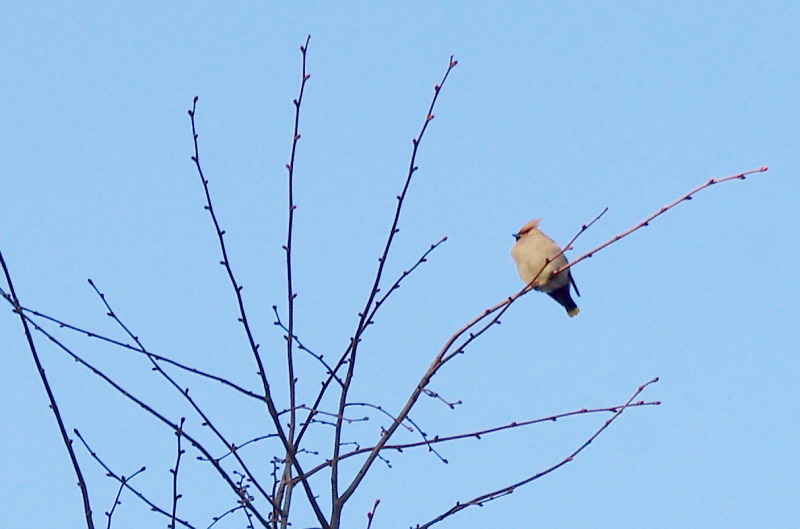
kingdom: Animalia
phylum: Chordata
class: Aves
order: Passeriformes
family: Bombycillidae
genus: Bombycilla
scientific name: Bombycilla garrulus
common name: Bohemian waxwing
